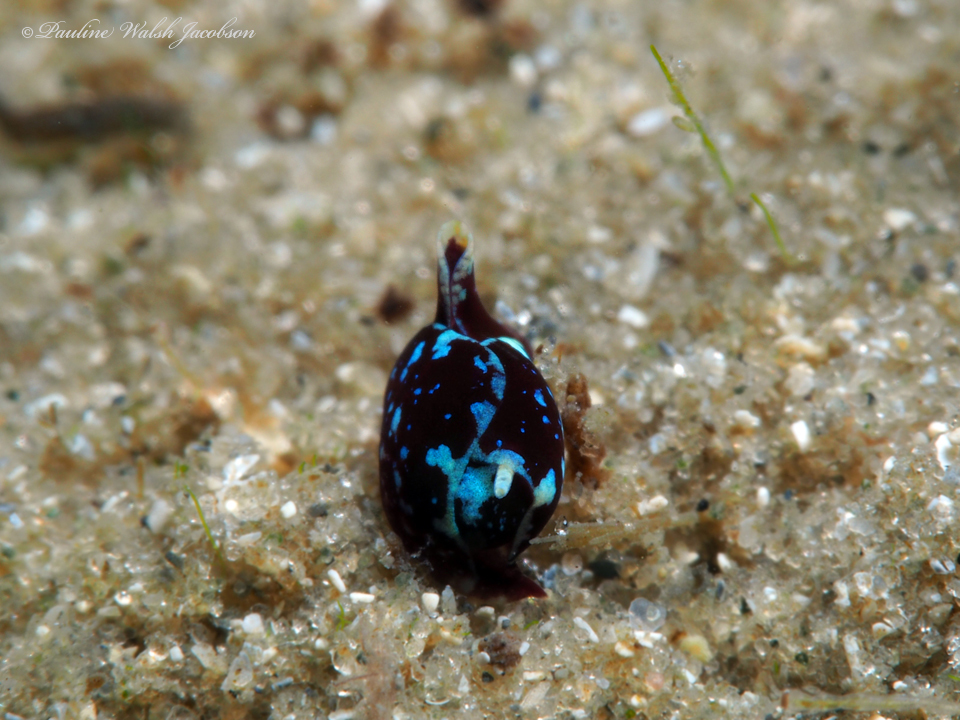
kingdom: Animalia
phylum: Mollusca
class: Gastropoda
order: Cephalaspidea
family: Gastropteridae
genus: Gastropteron
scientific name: Gastropteron chacmol
